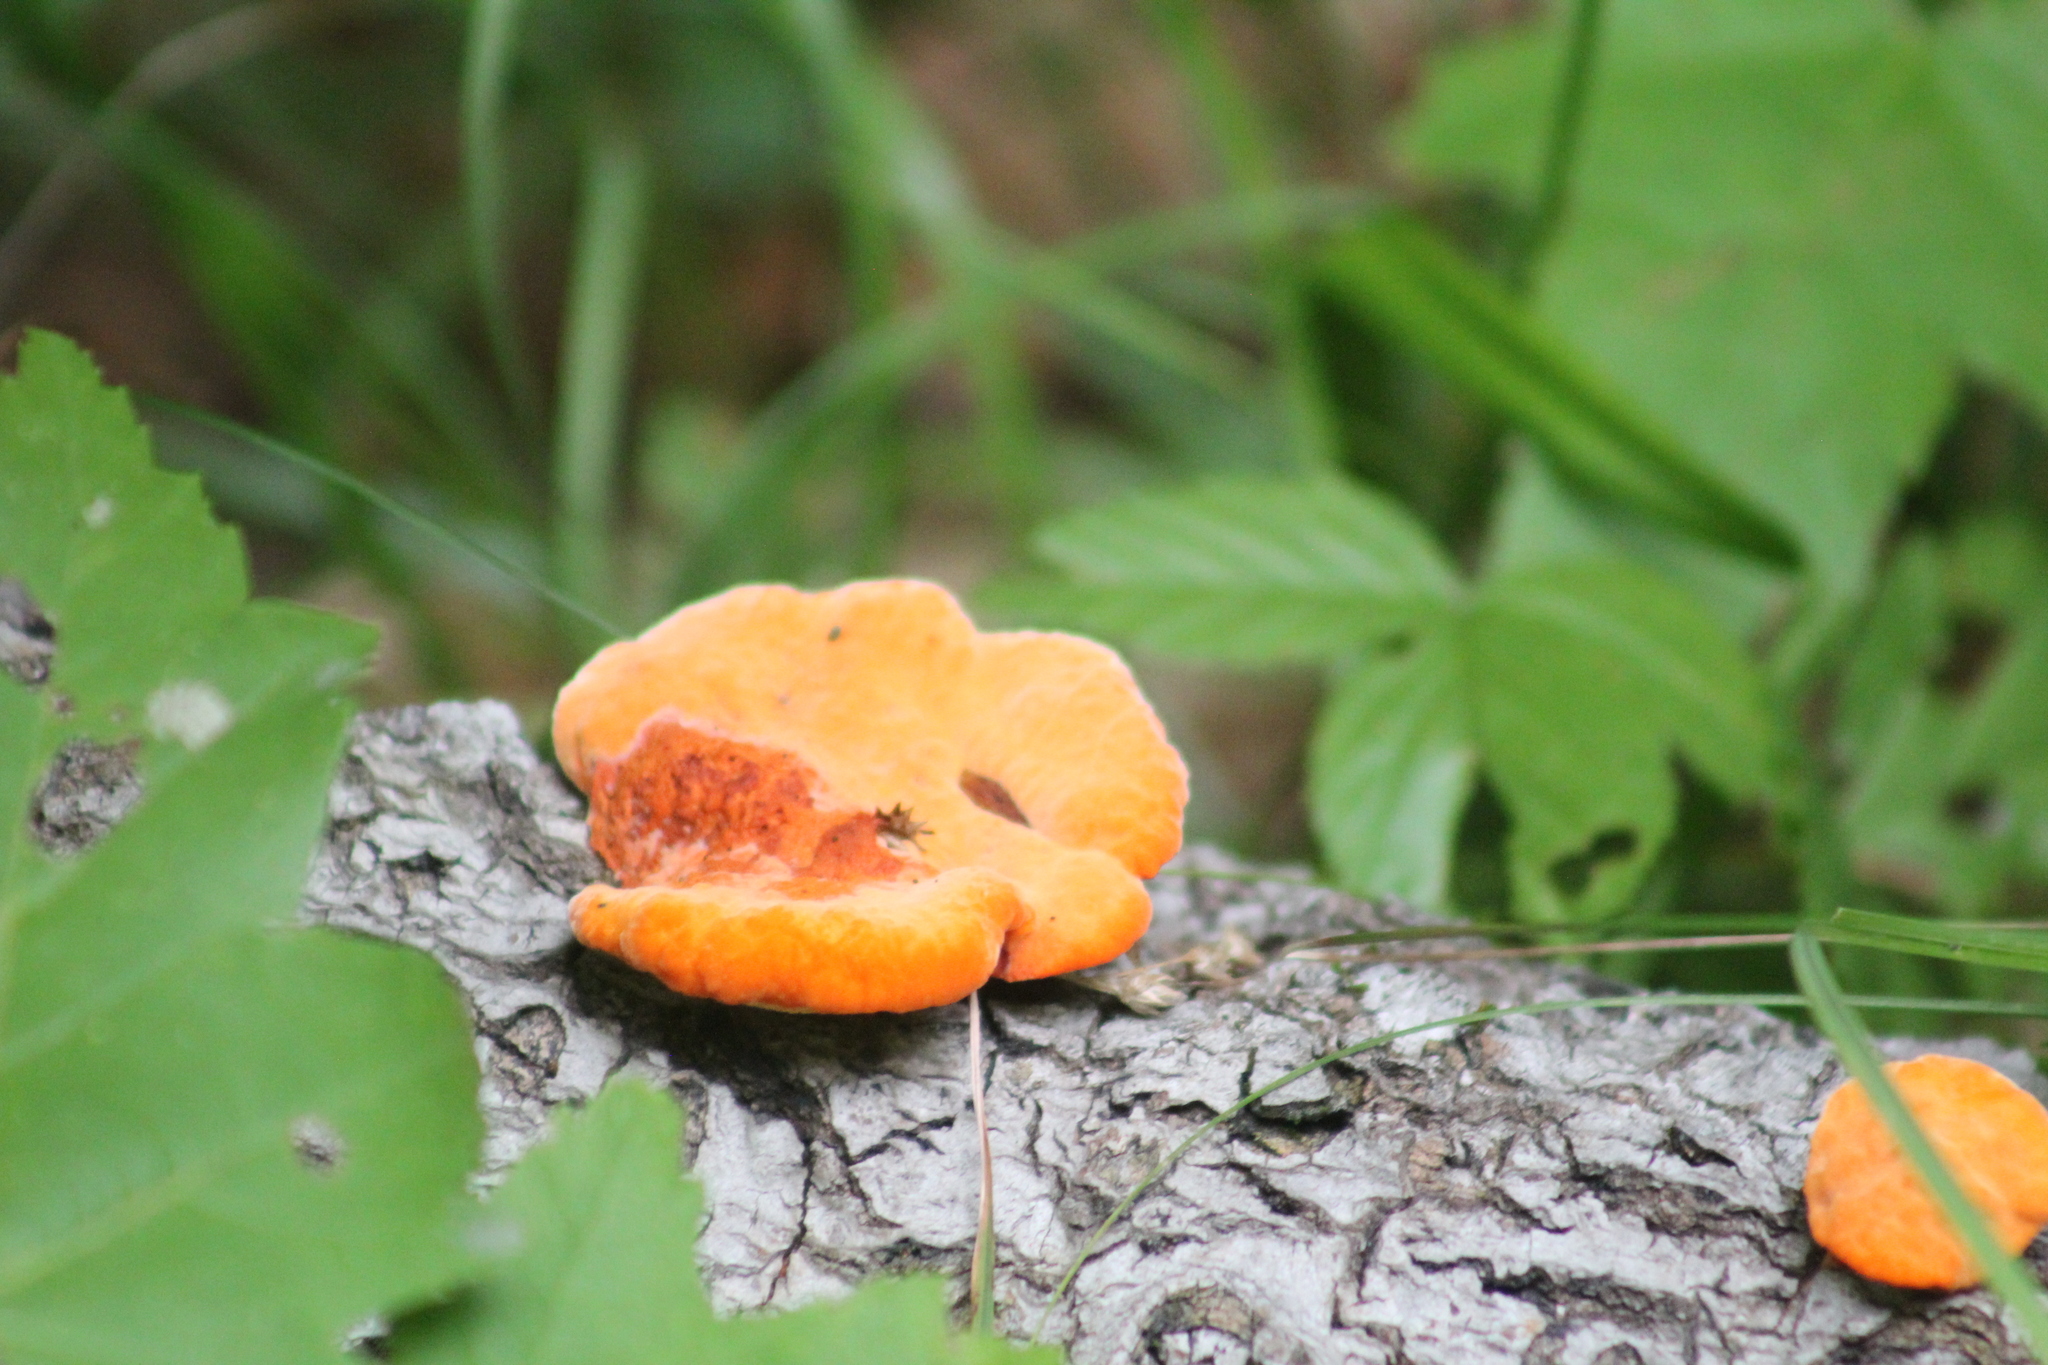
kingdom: Fungi
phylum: Basidiomycota
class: Agaricomycetes
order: Polyporales
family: Polyporaceae
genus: Trametes
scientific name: Trametes cinnabarina
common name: Northern cinnabar polypore
